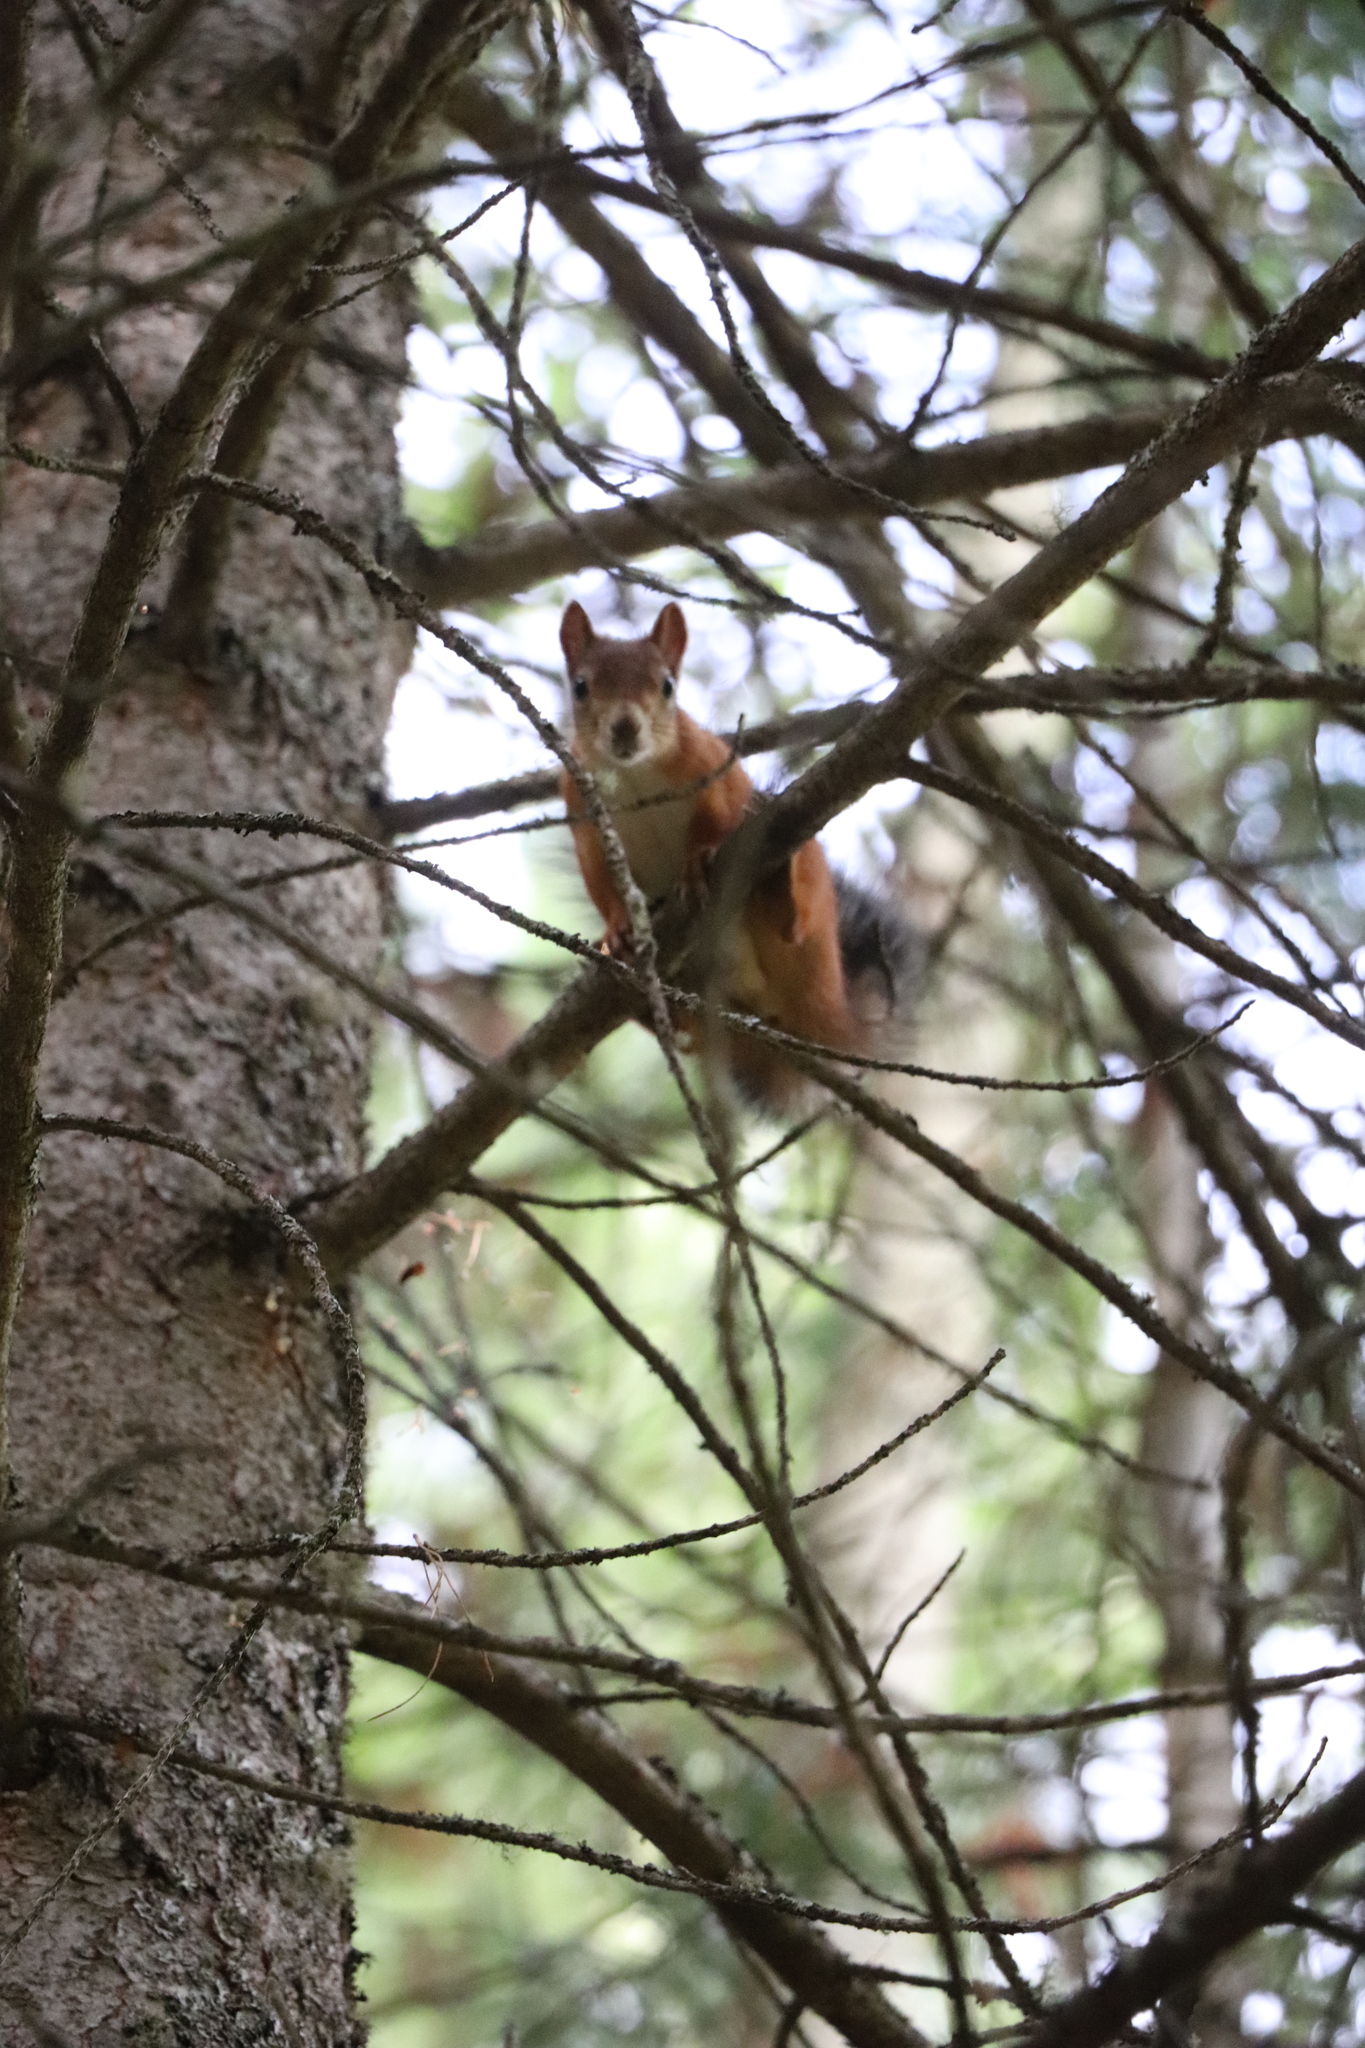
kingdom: Animalia
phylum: Chordata
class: Mammalia
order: Rodentia
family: Sciuridae
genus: Sciurus
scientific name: Sciurus vulgaris
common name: Eurasian red squirrel
